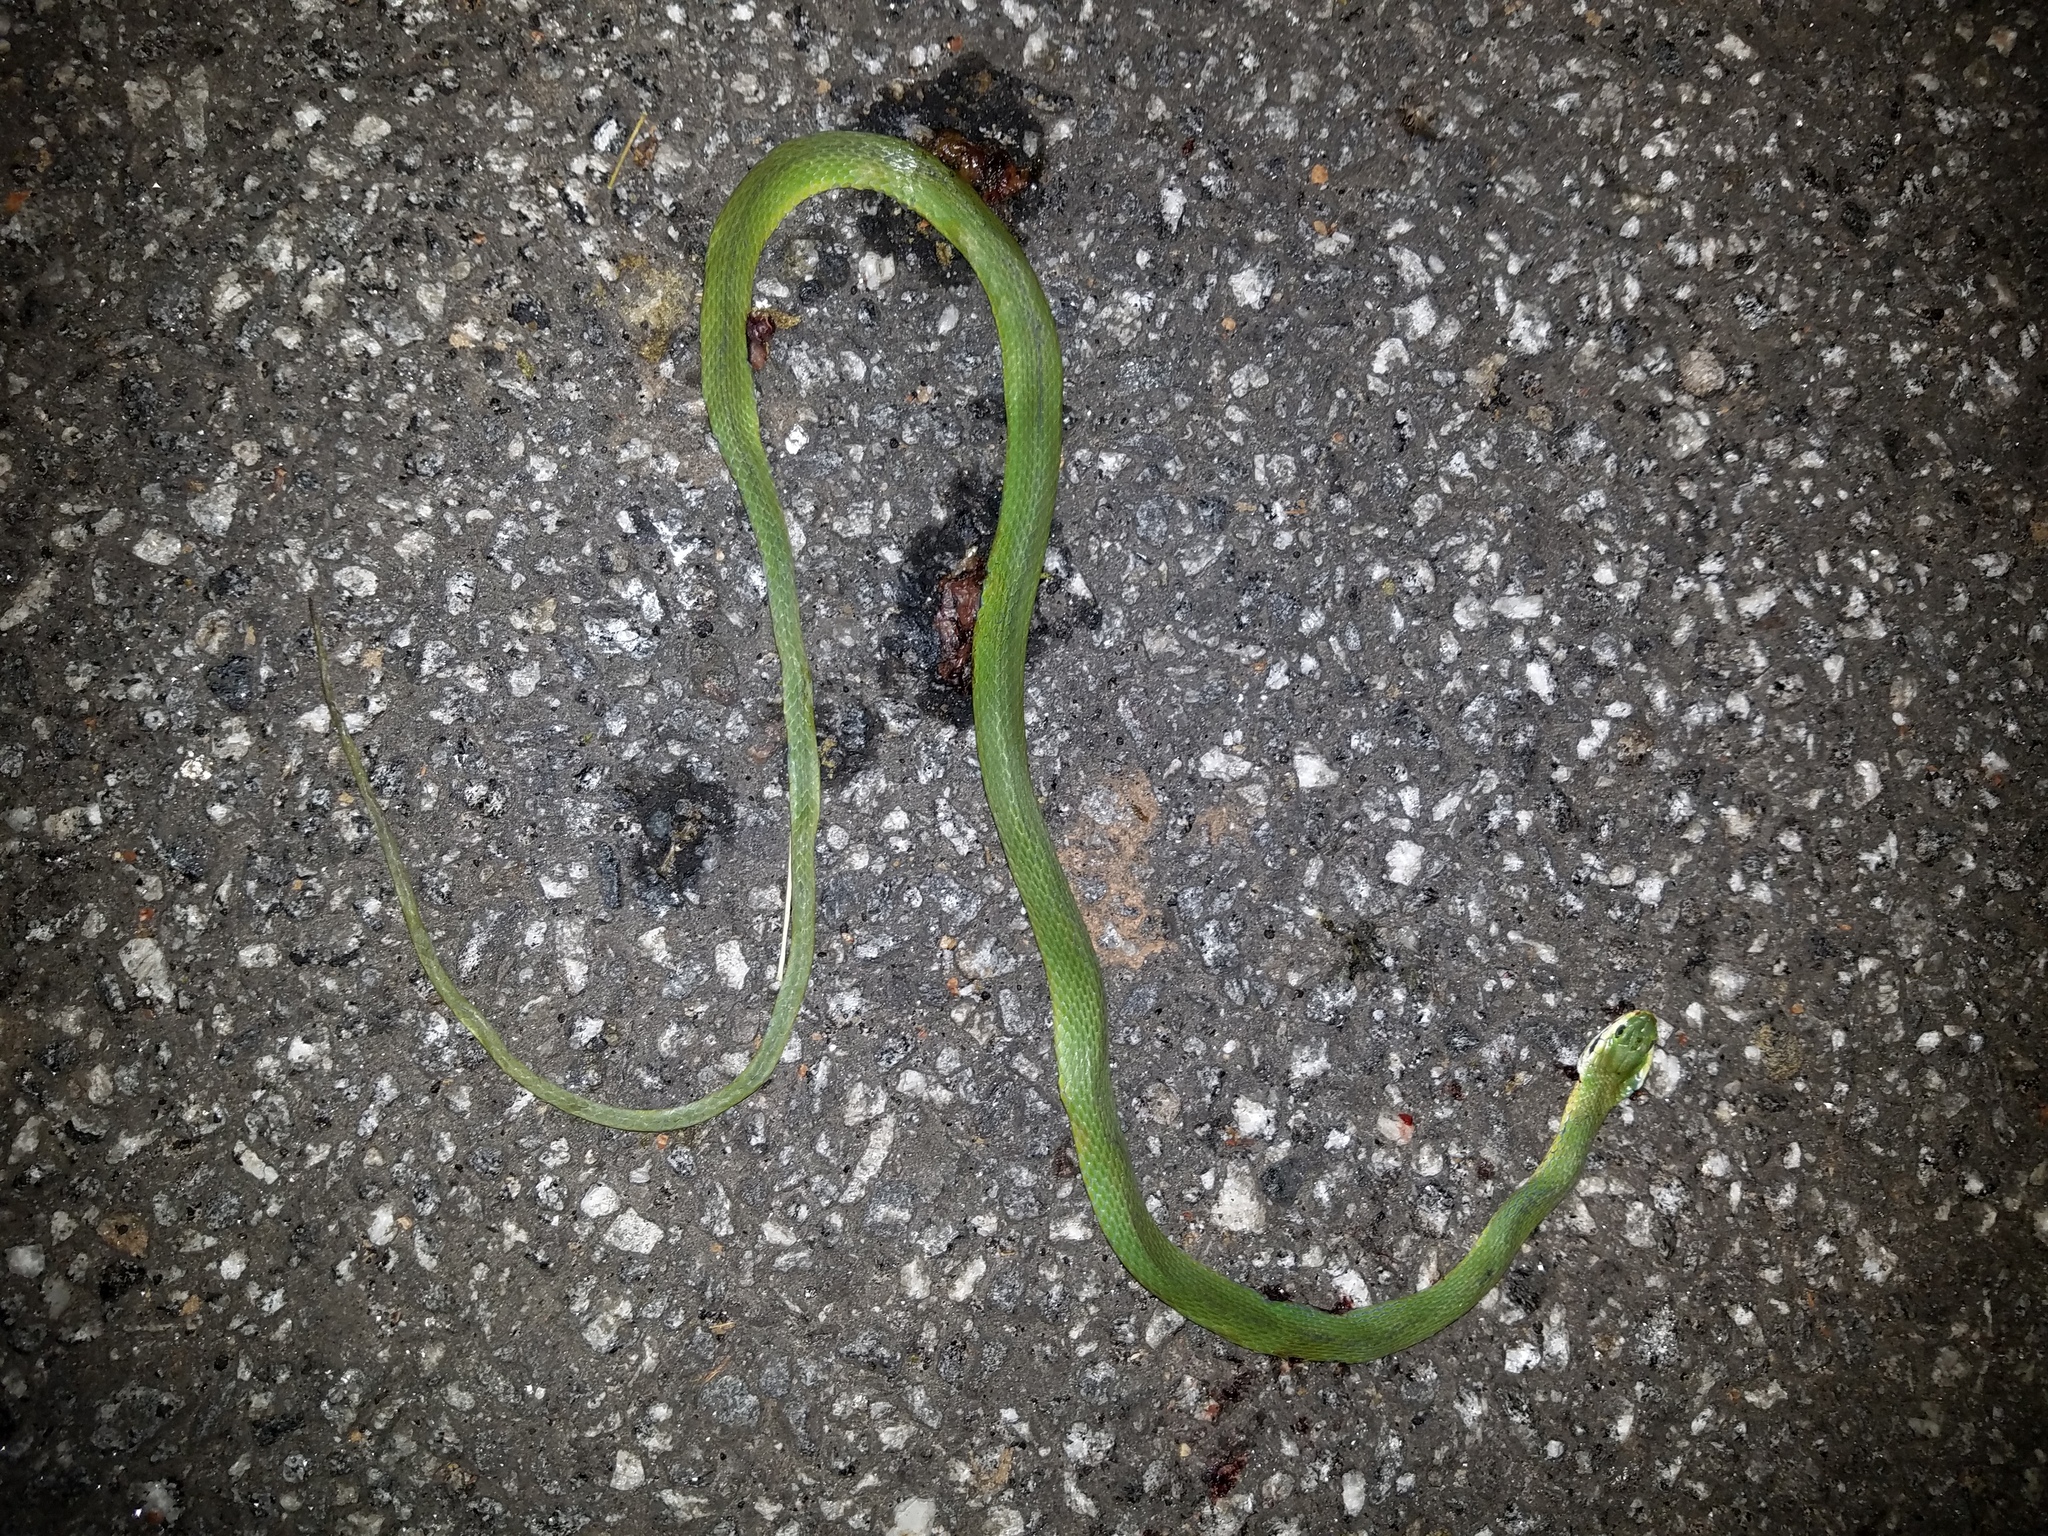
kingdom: Animalia
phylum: Chordata
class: Squamata
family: Colubridae
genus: Opheodrys
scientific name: Opheodrys aestivus
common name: Rough greensnake
